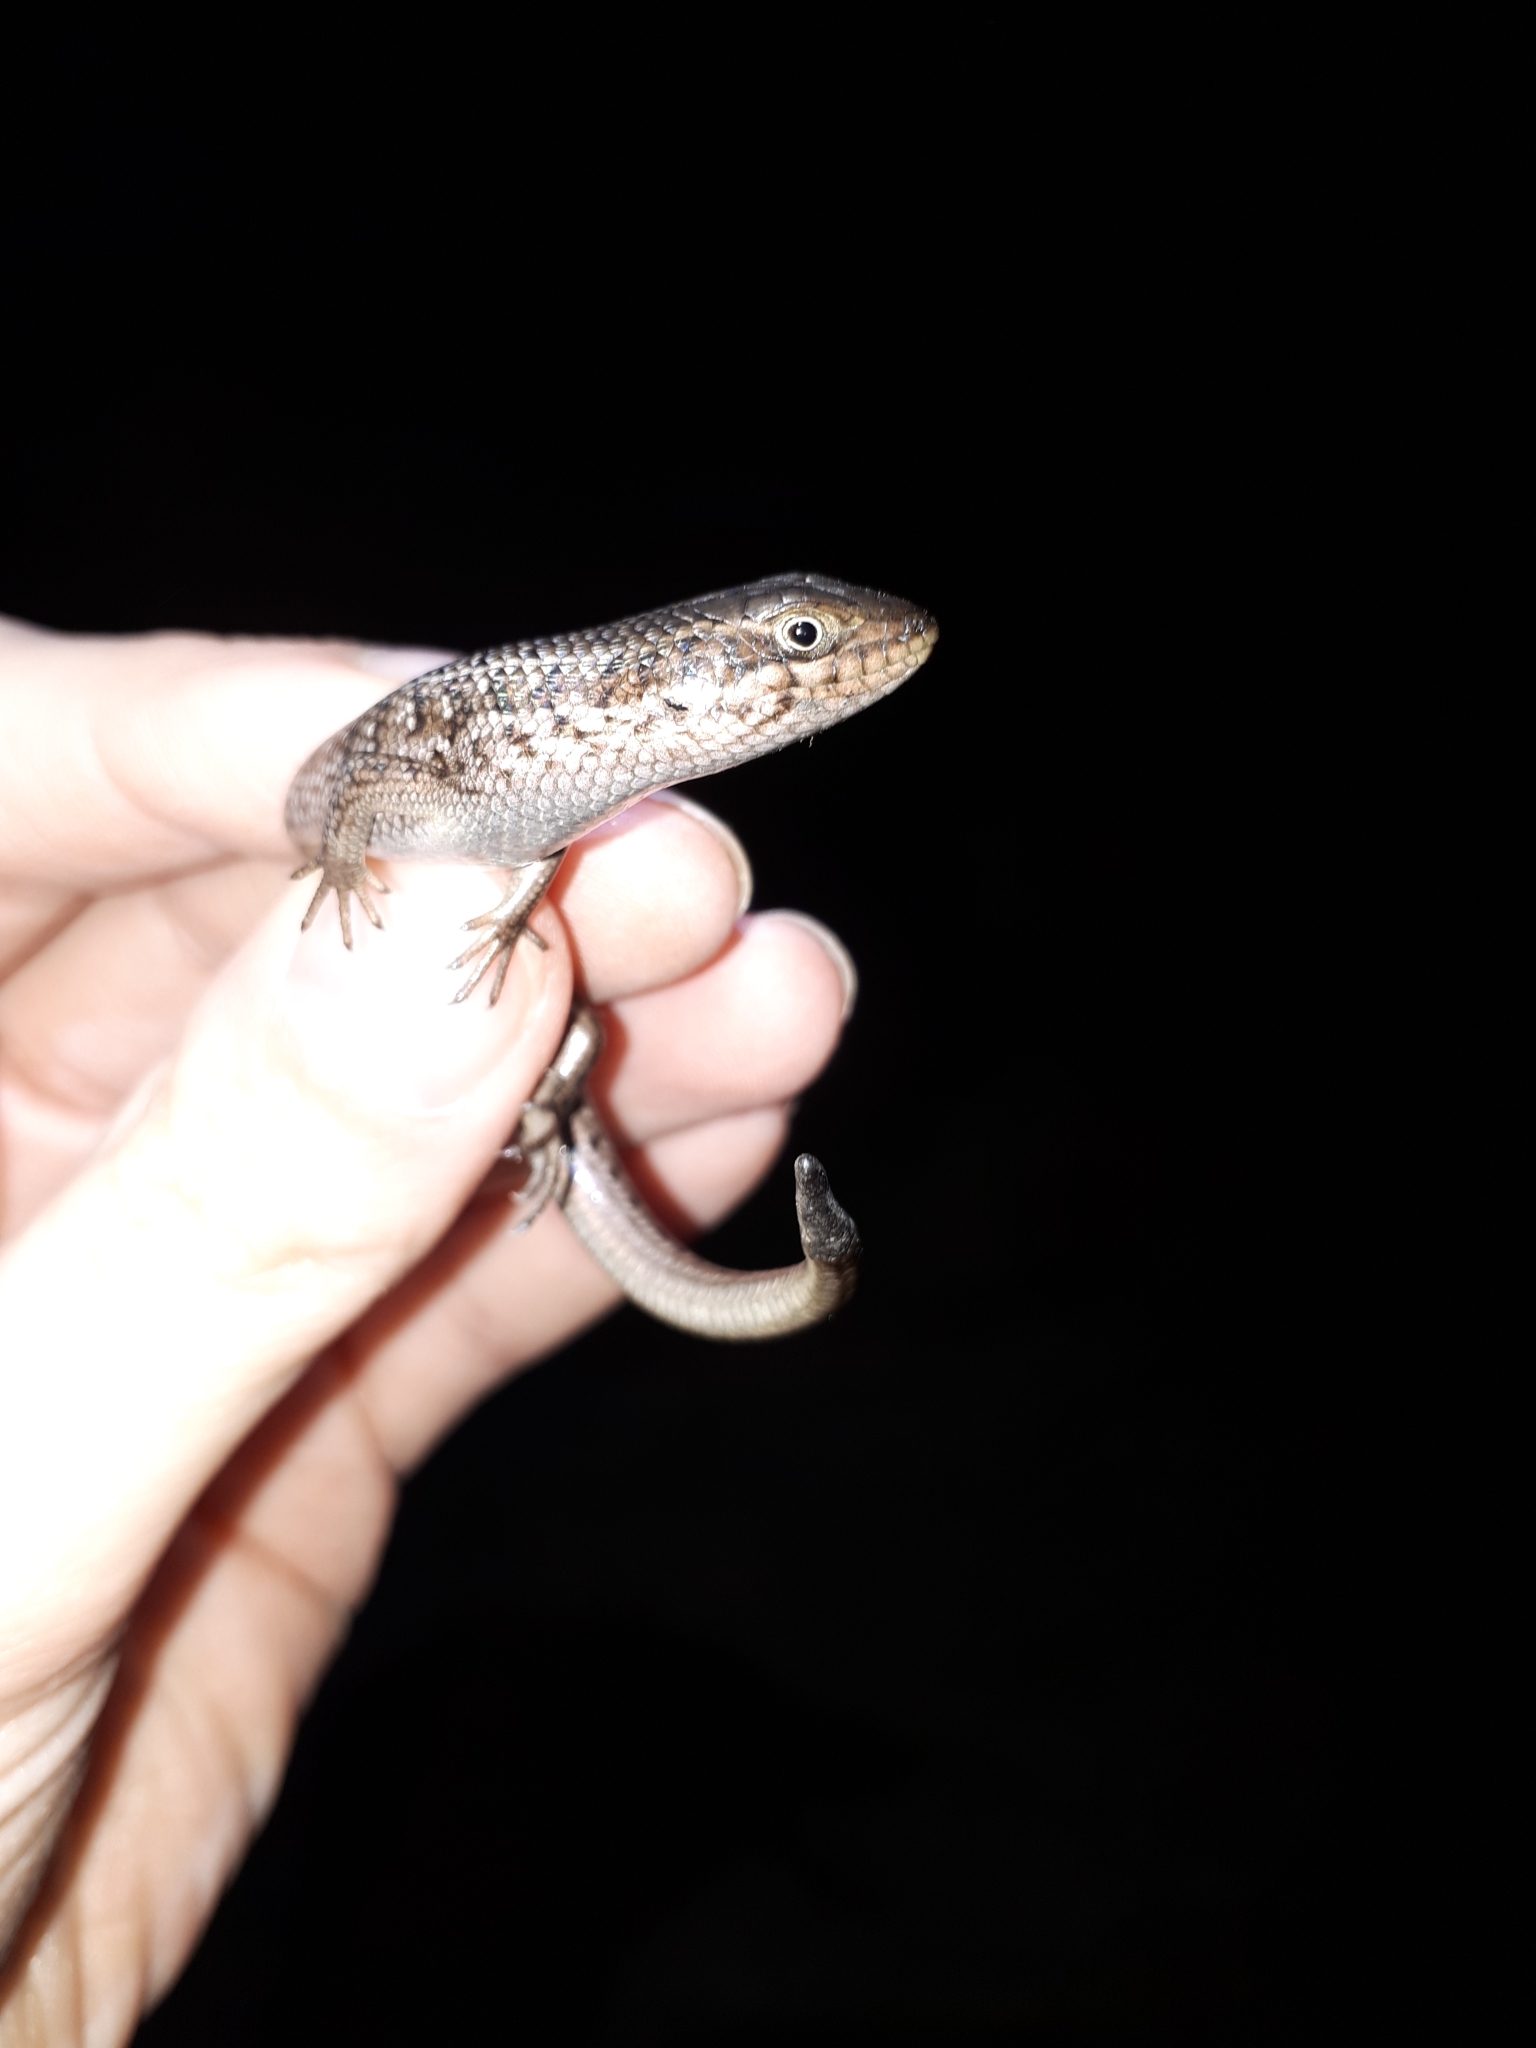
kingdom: Animalia
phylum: Chordata
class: Squamata
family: Scincidae
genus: Trachylepis
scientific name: Trachylepis capensis
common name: Cape skink
